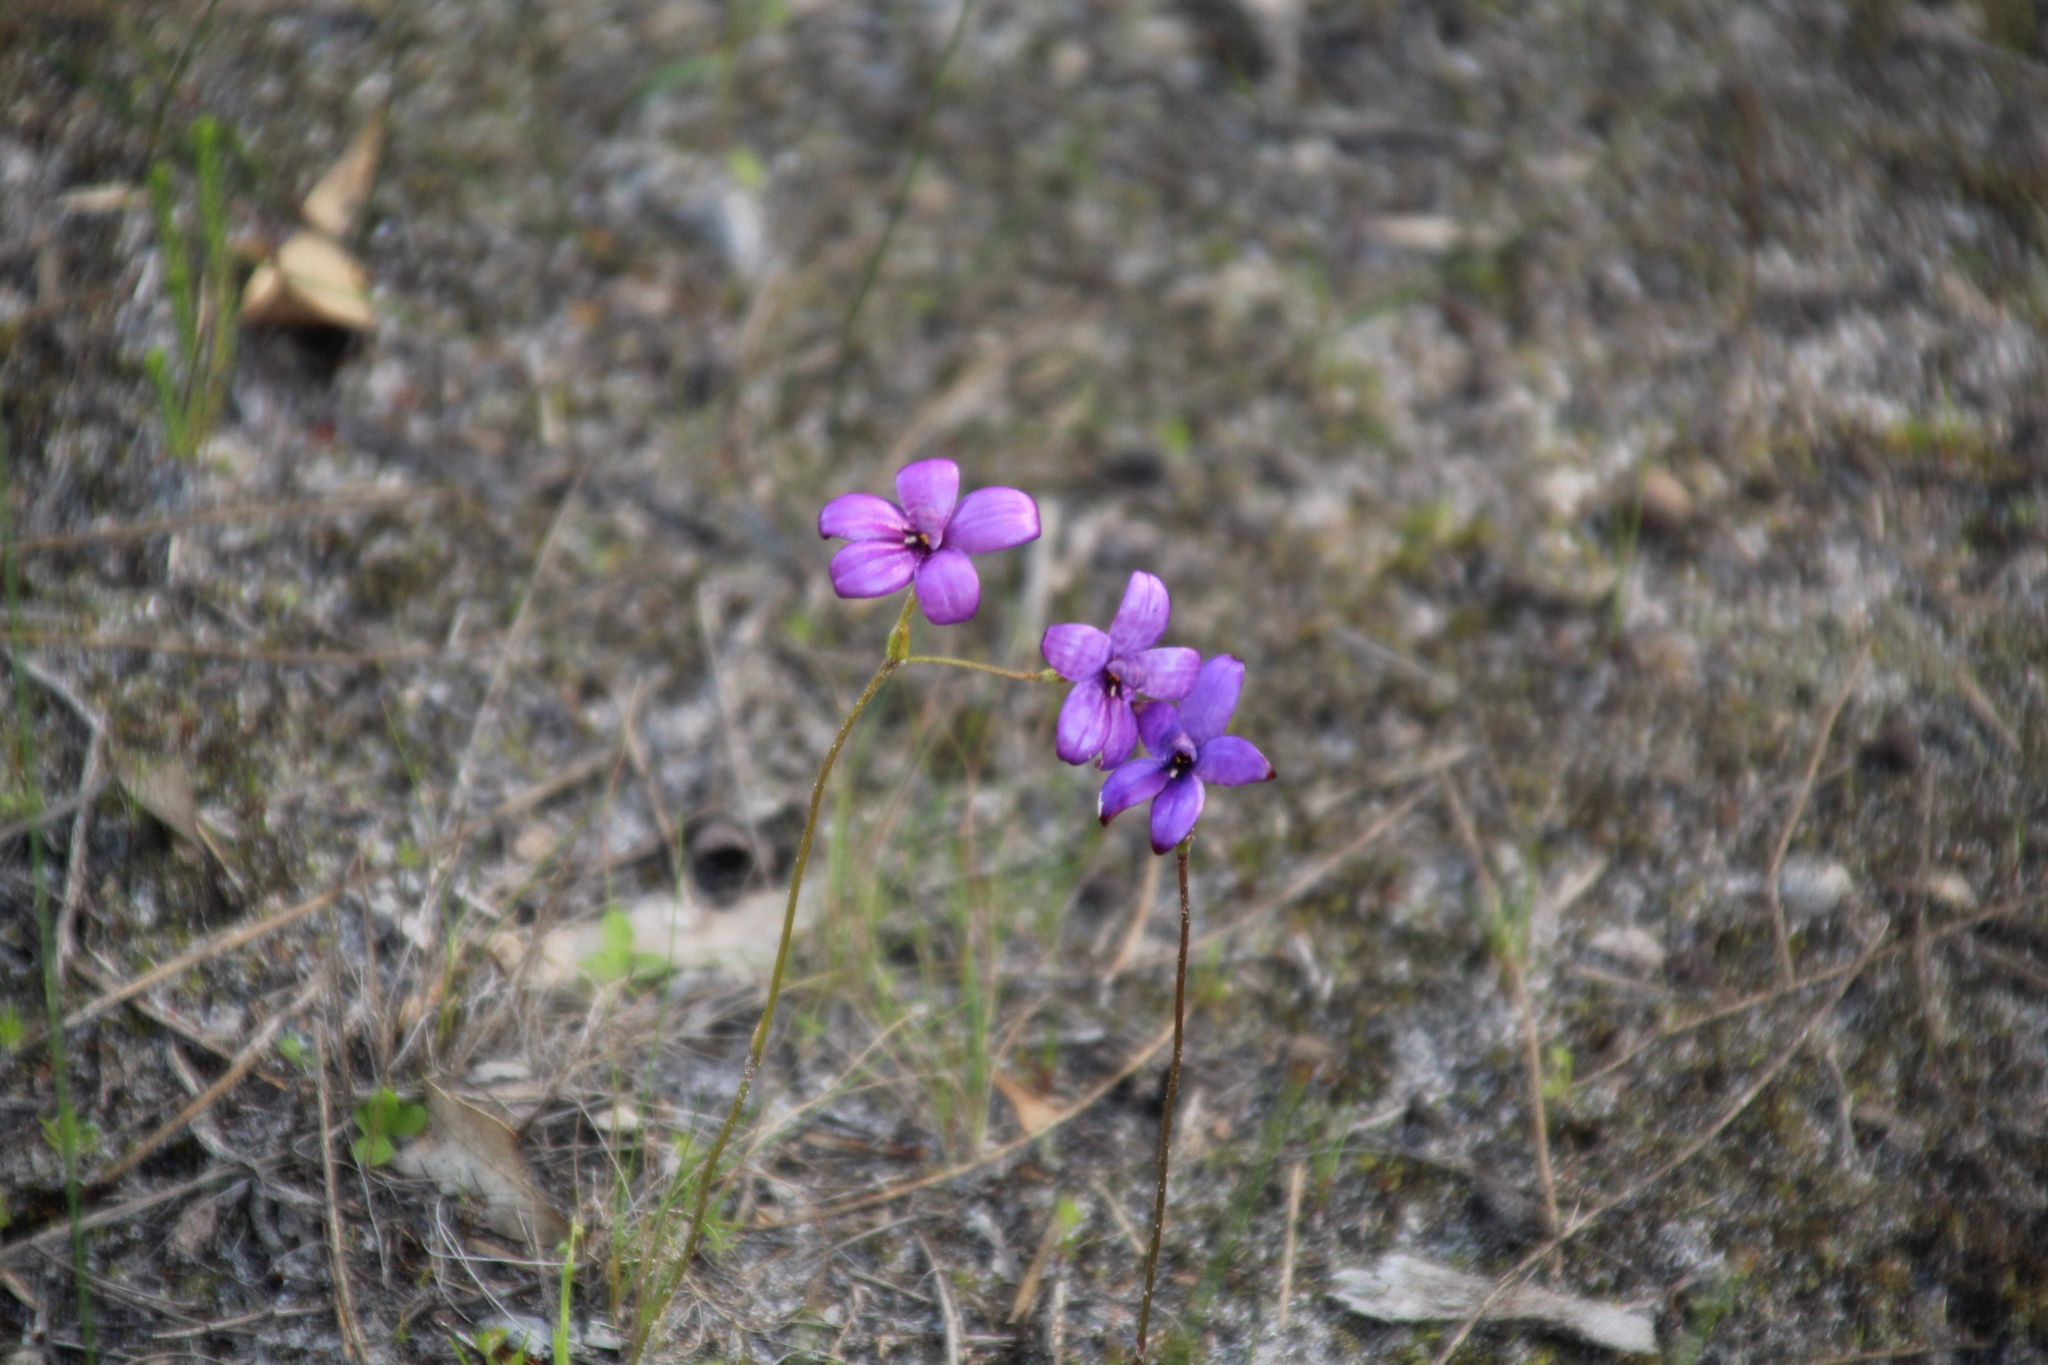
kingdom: Plantae
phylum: Tracheophyta
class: Liliopsida
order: Asparagales
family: Orchidaceae
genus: Caladenia
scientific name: Caladenia brunonis
